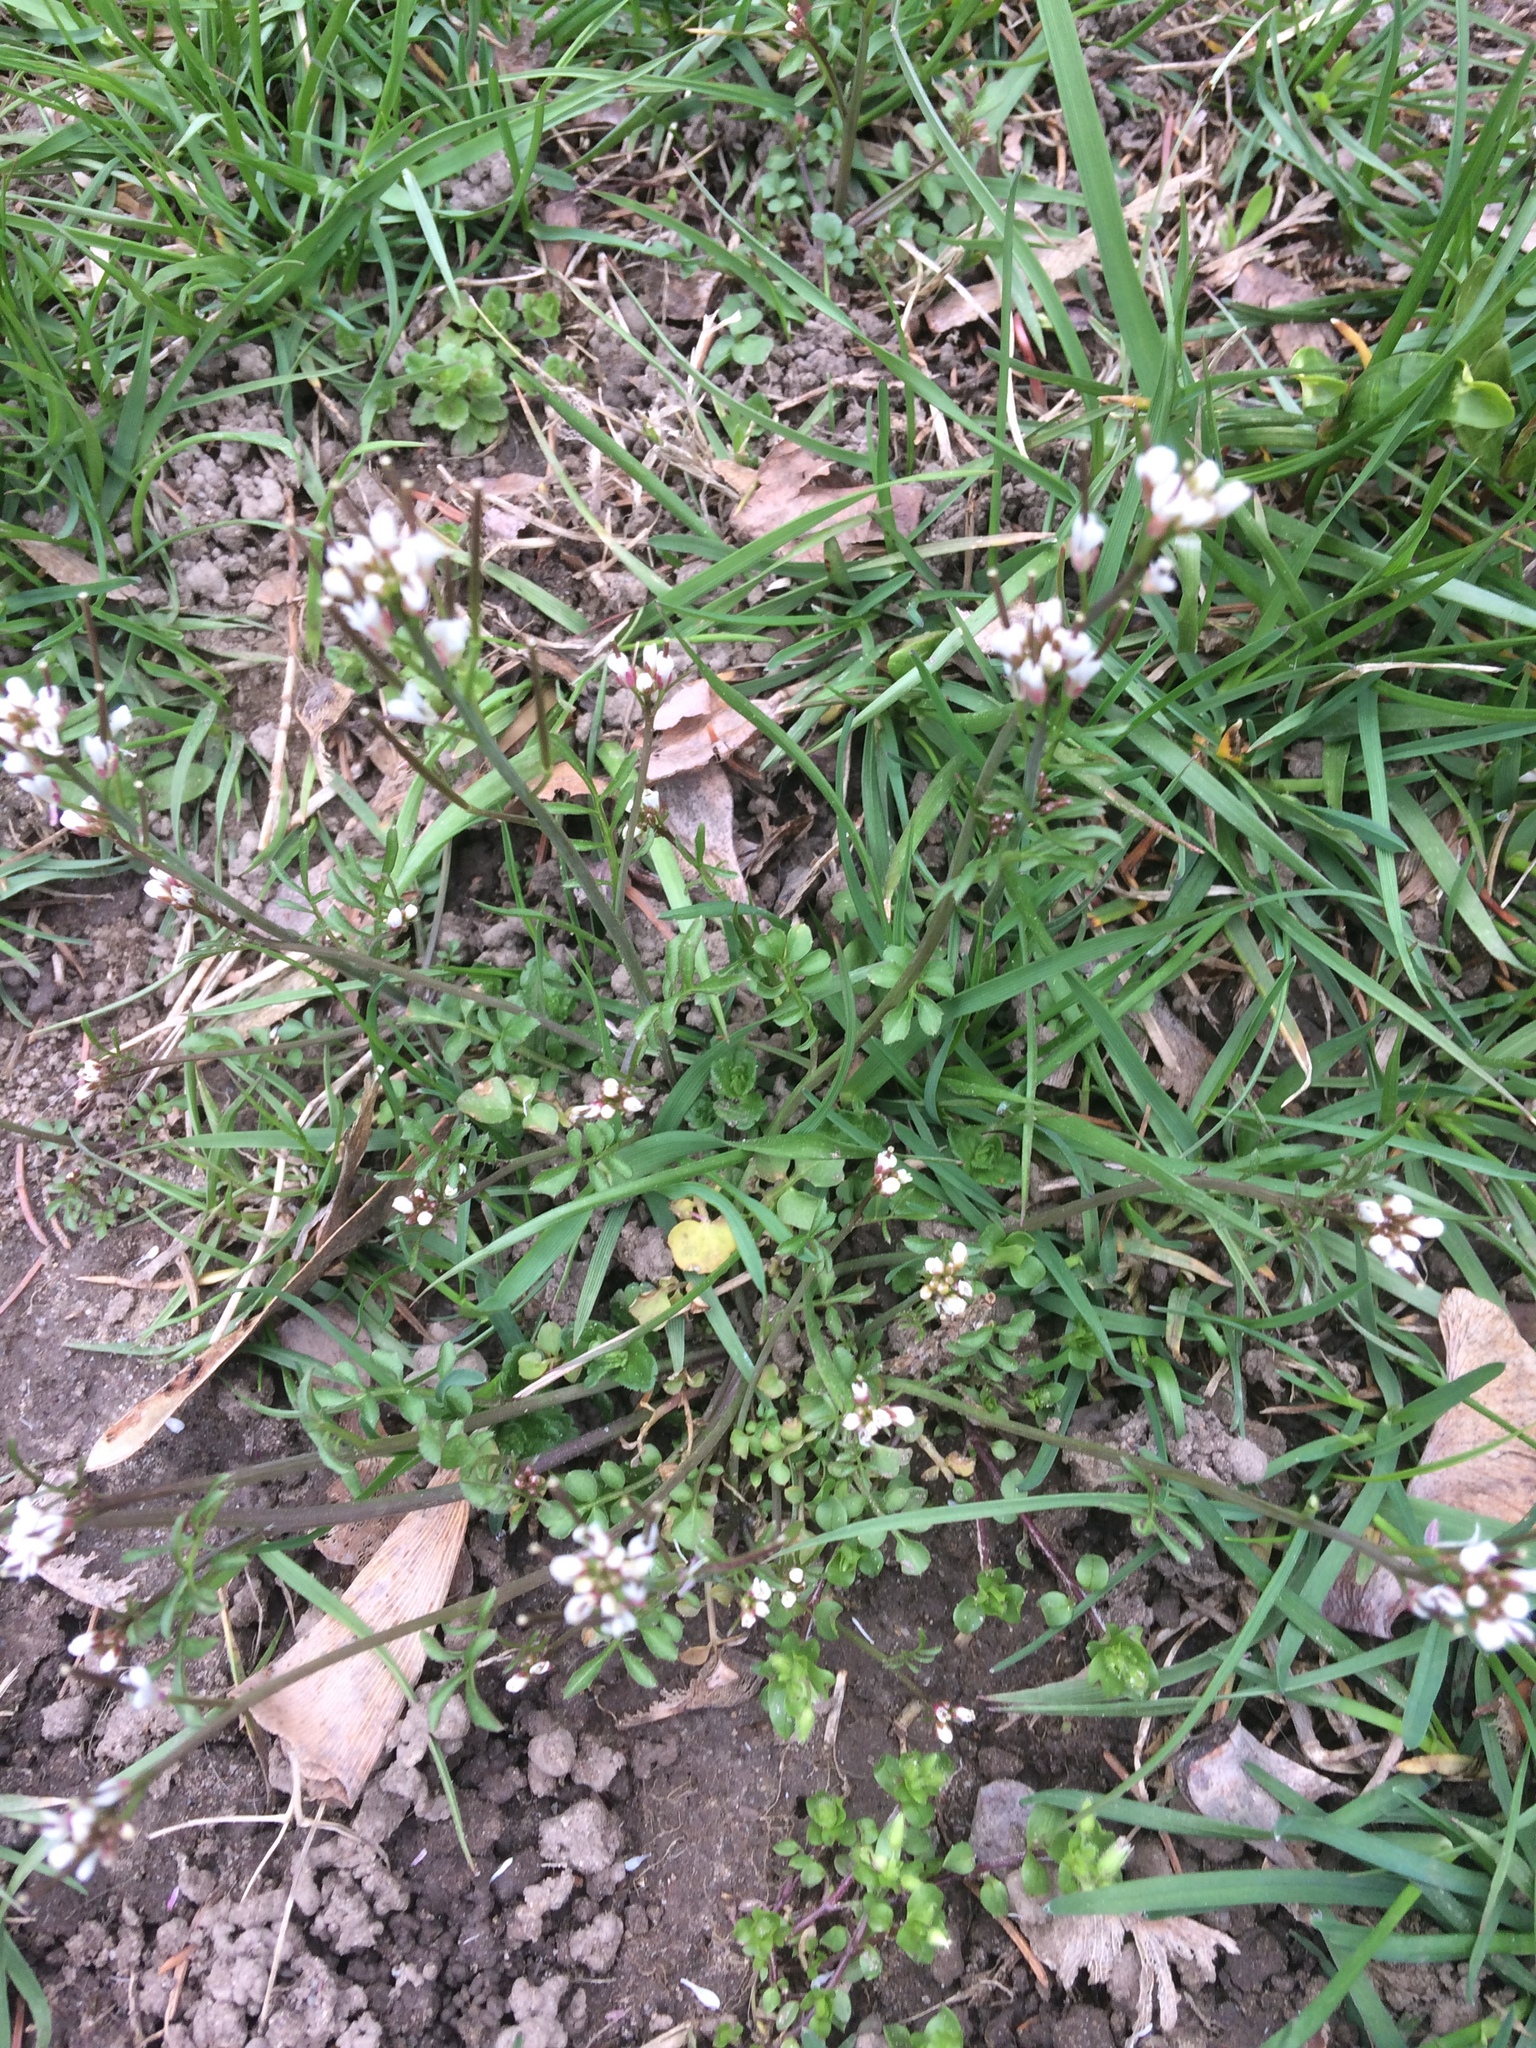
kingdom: Plantae
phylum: Tracheophyta
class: Magnoliopsida
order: Brassicales
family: Brassicaceae
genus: Cardamine
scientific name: Cardamine hirsuta
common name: Hairy bittercress
